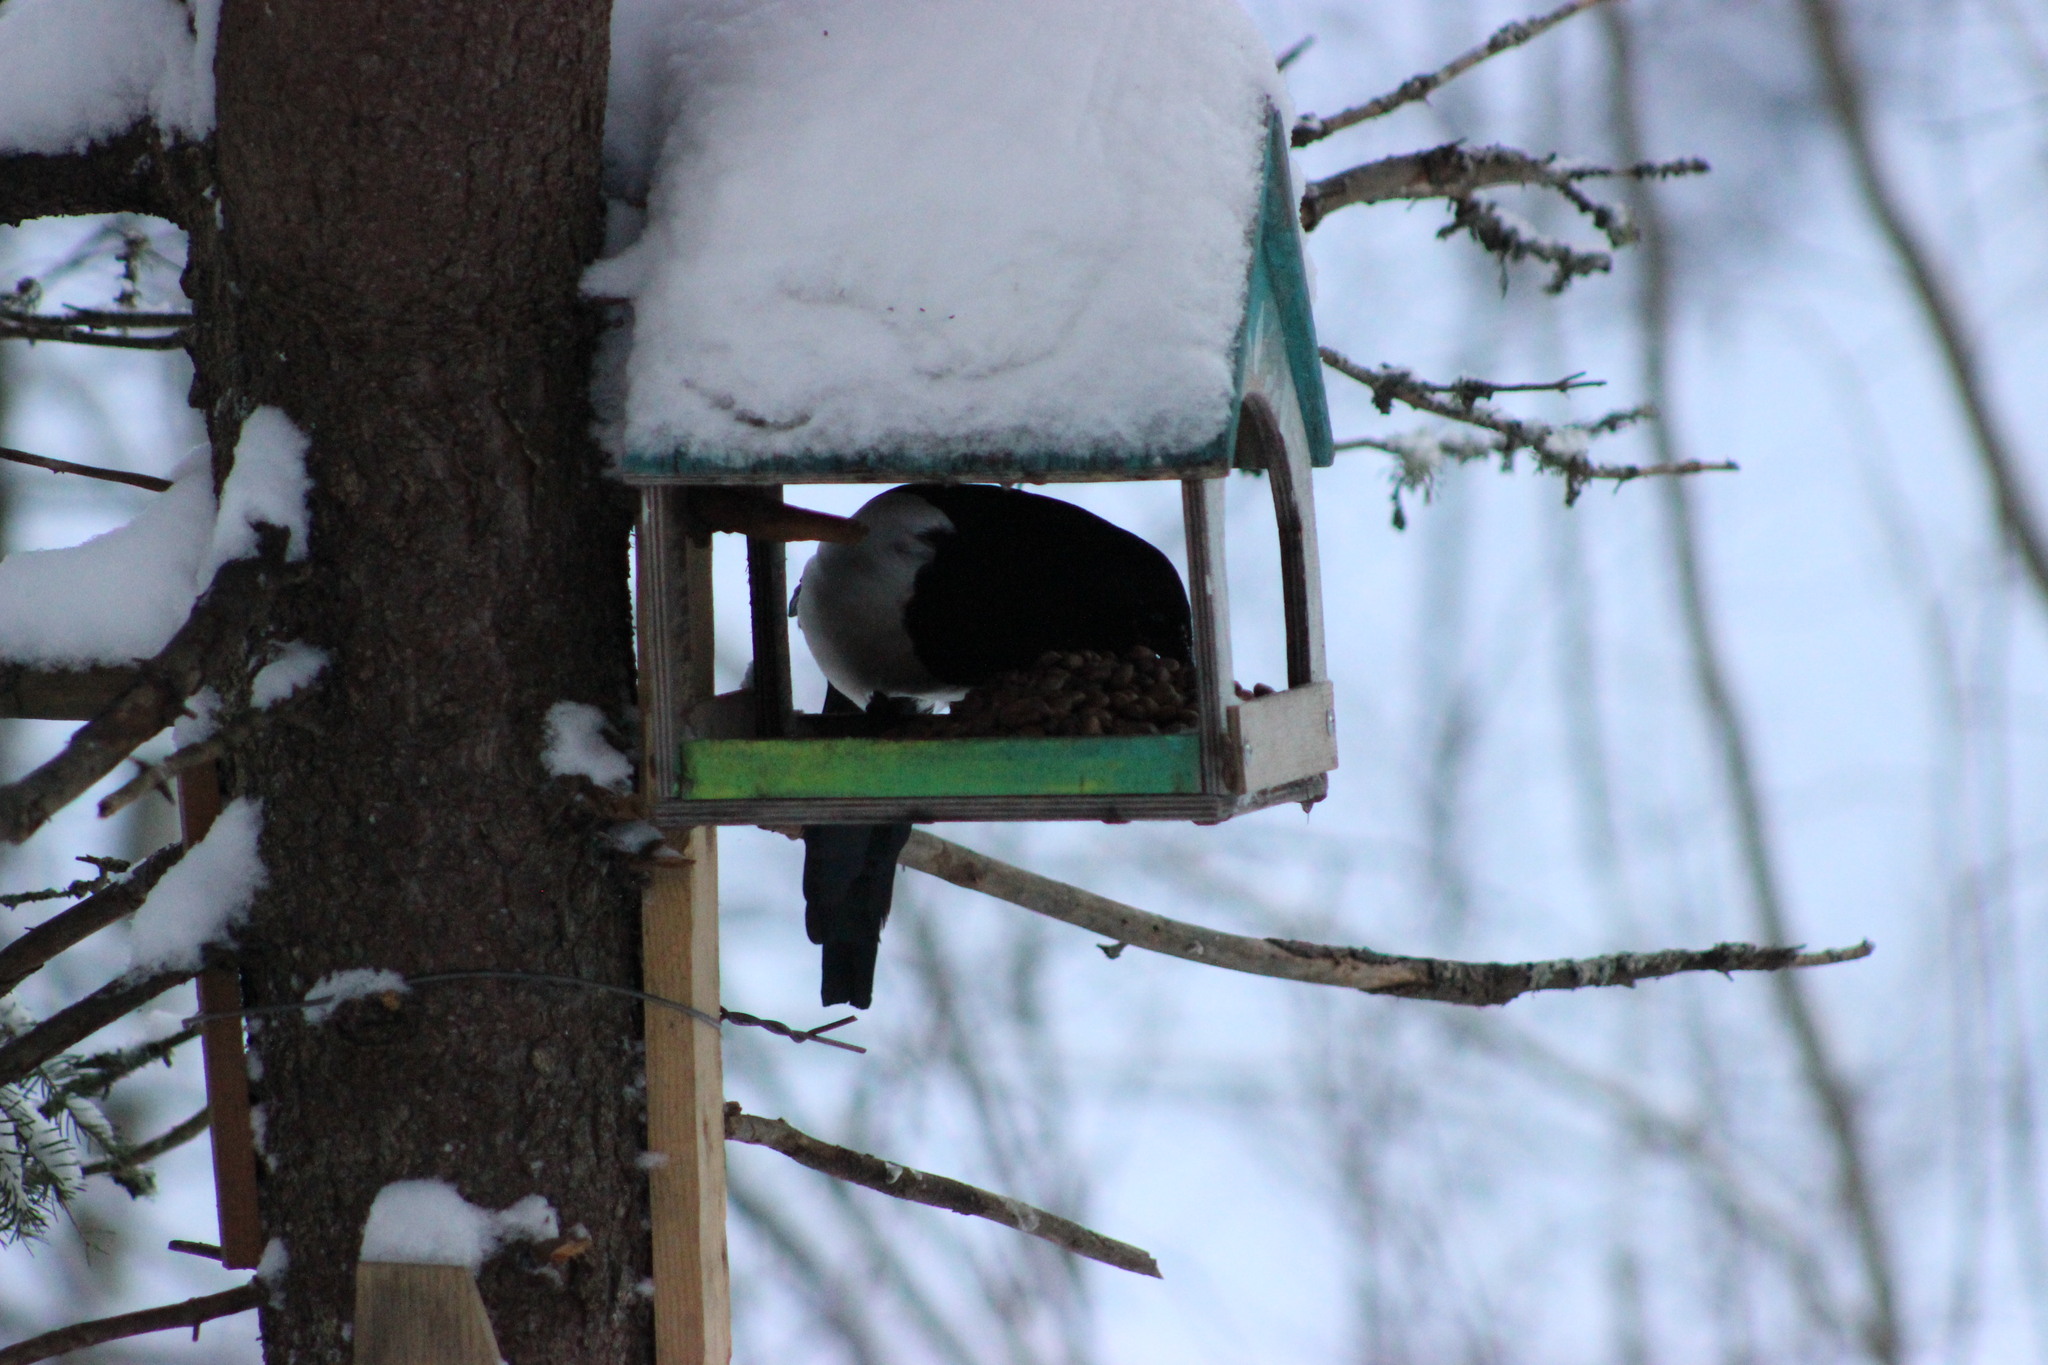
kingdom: Animalia
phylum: Chordata
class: Aves
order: Passeriformes
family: Corvidae
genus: Pica
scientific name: Pica pica
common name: Eurasian magpie
